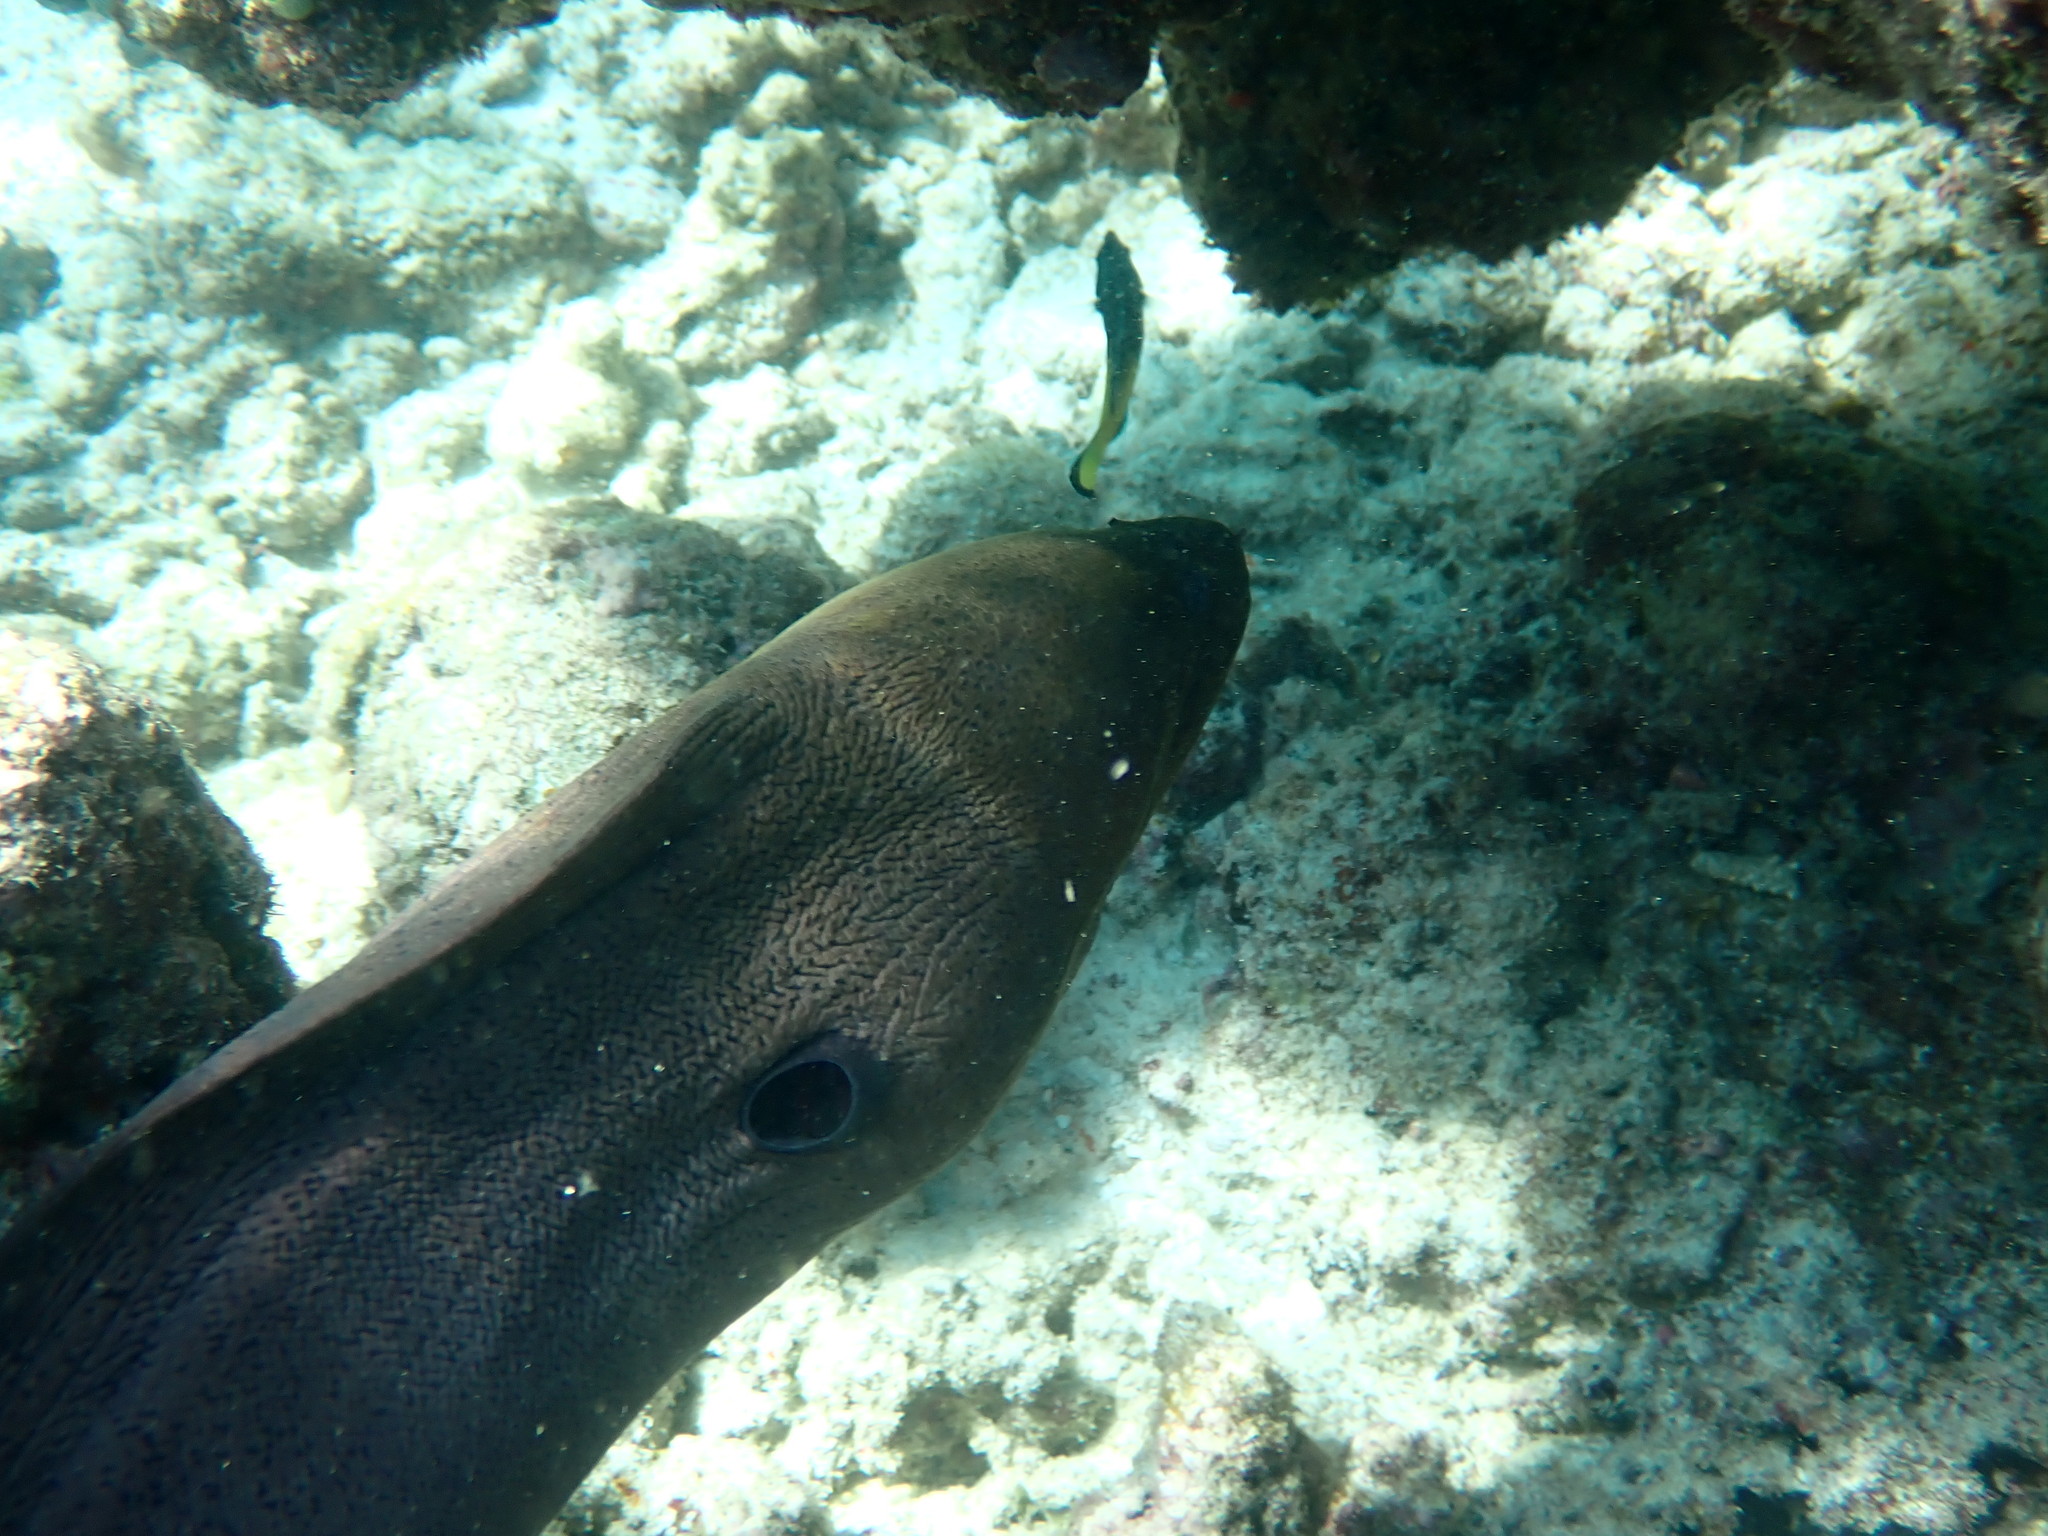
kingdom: Animalia
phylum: Chordata
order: Anguilliformes
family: Muraenidae
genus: Gymnothorax
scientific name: Gymnothorax javanicus
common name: Giant moray
